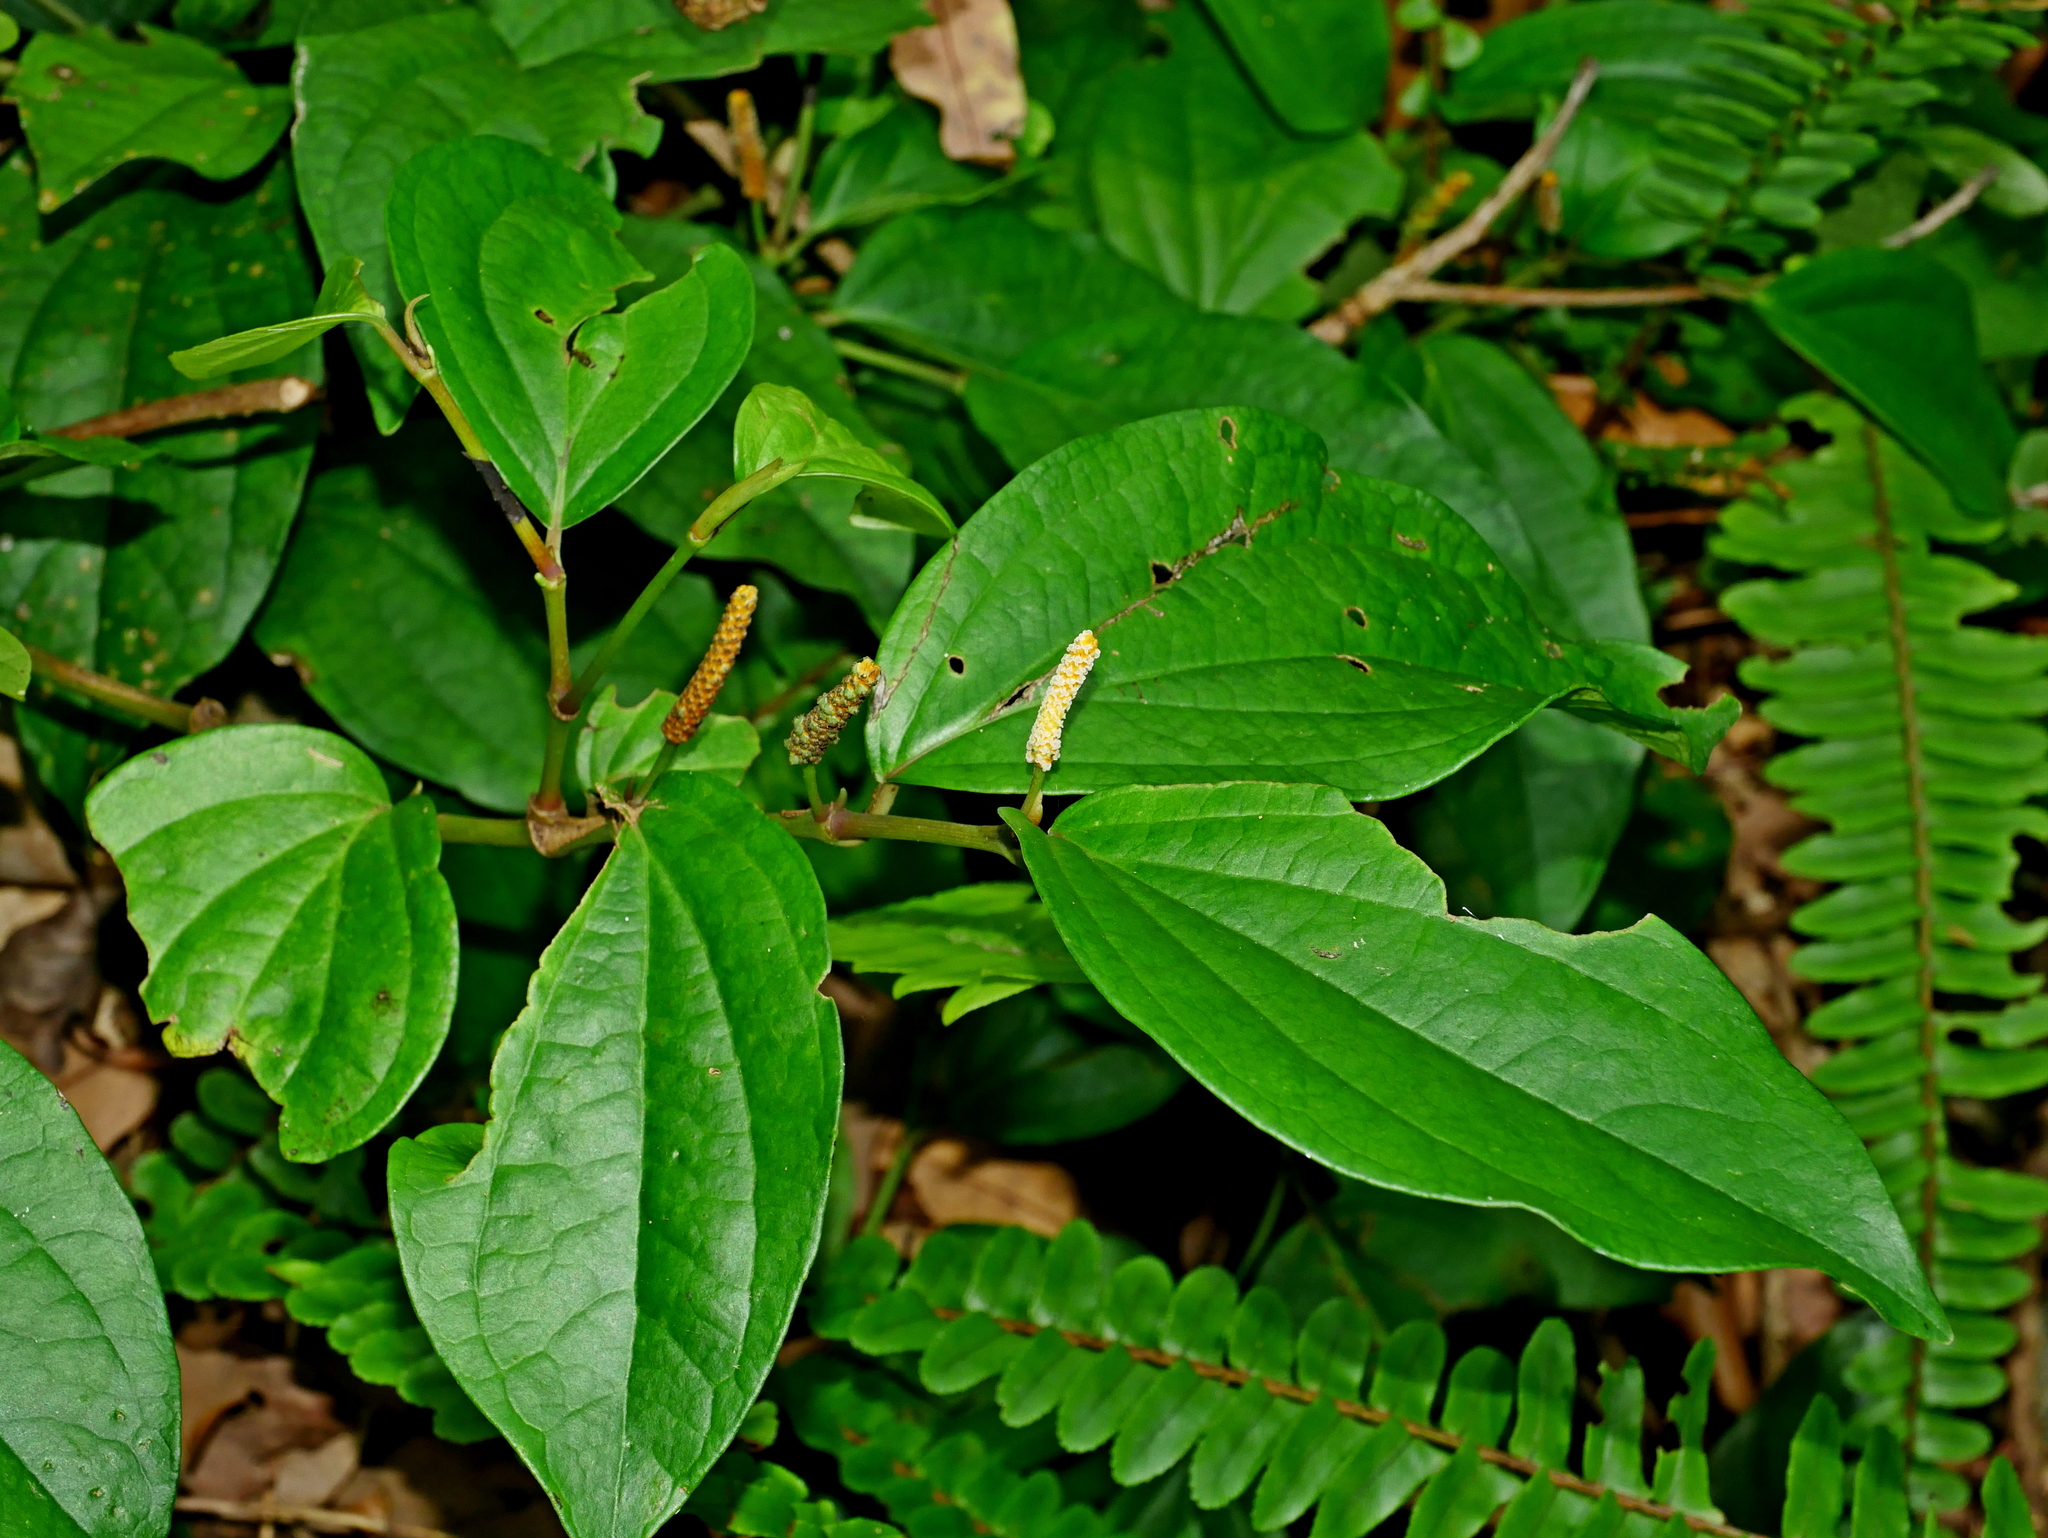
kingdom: Plantae
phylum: Tracheophyta
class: Magnoliopsida
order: Piperales
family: Piperaceae
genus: Piper
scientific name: Piper kadsura
